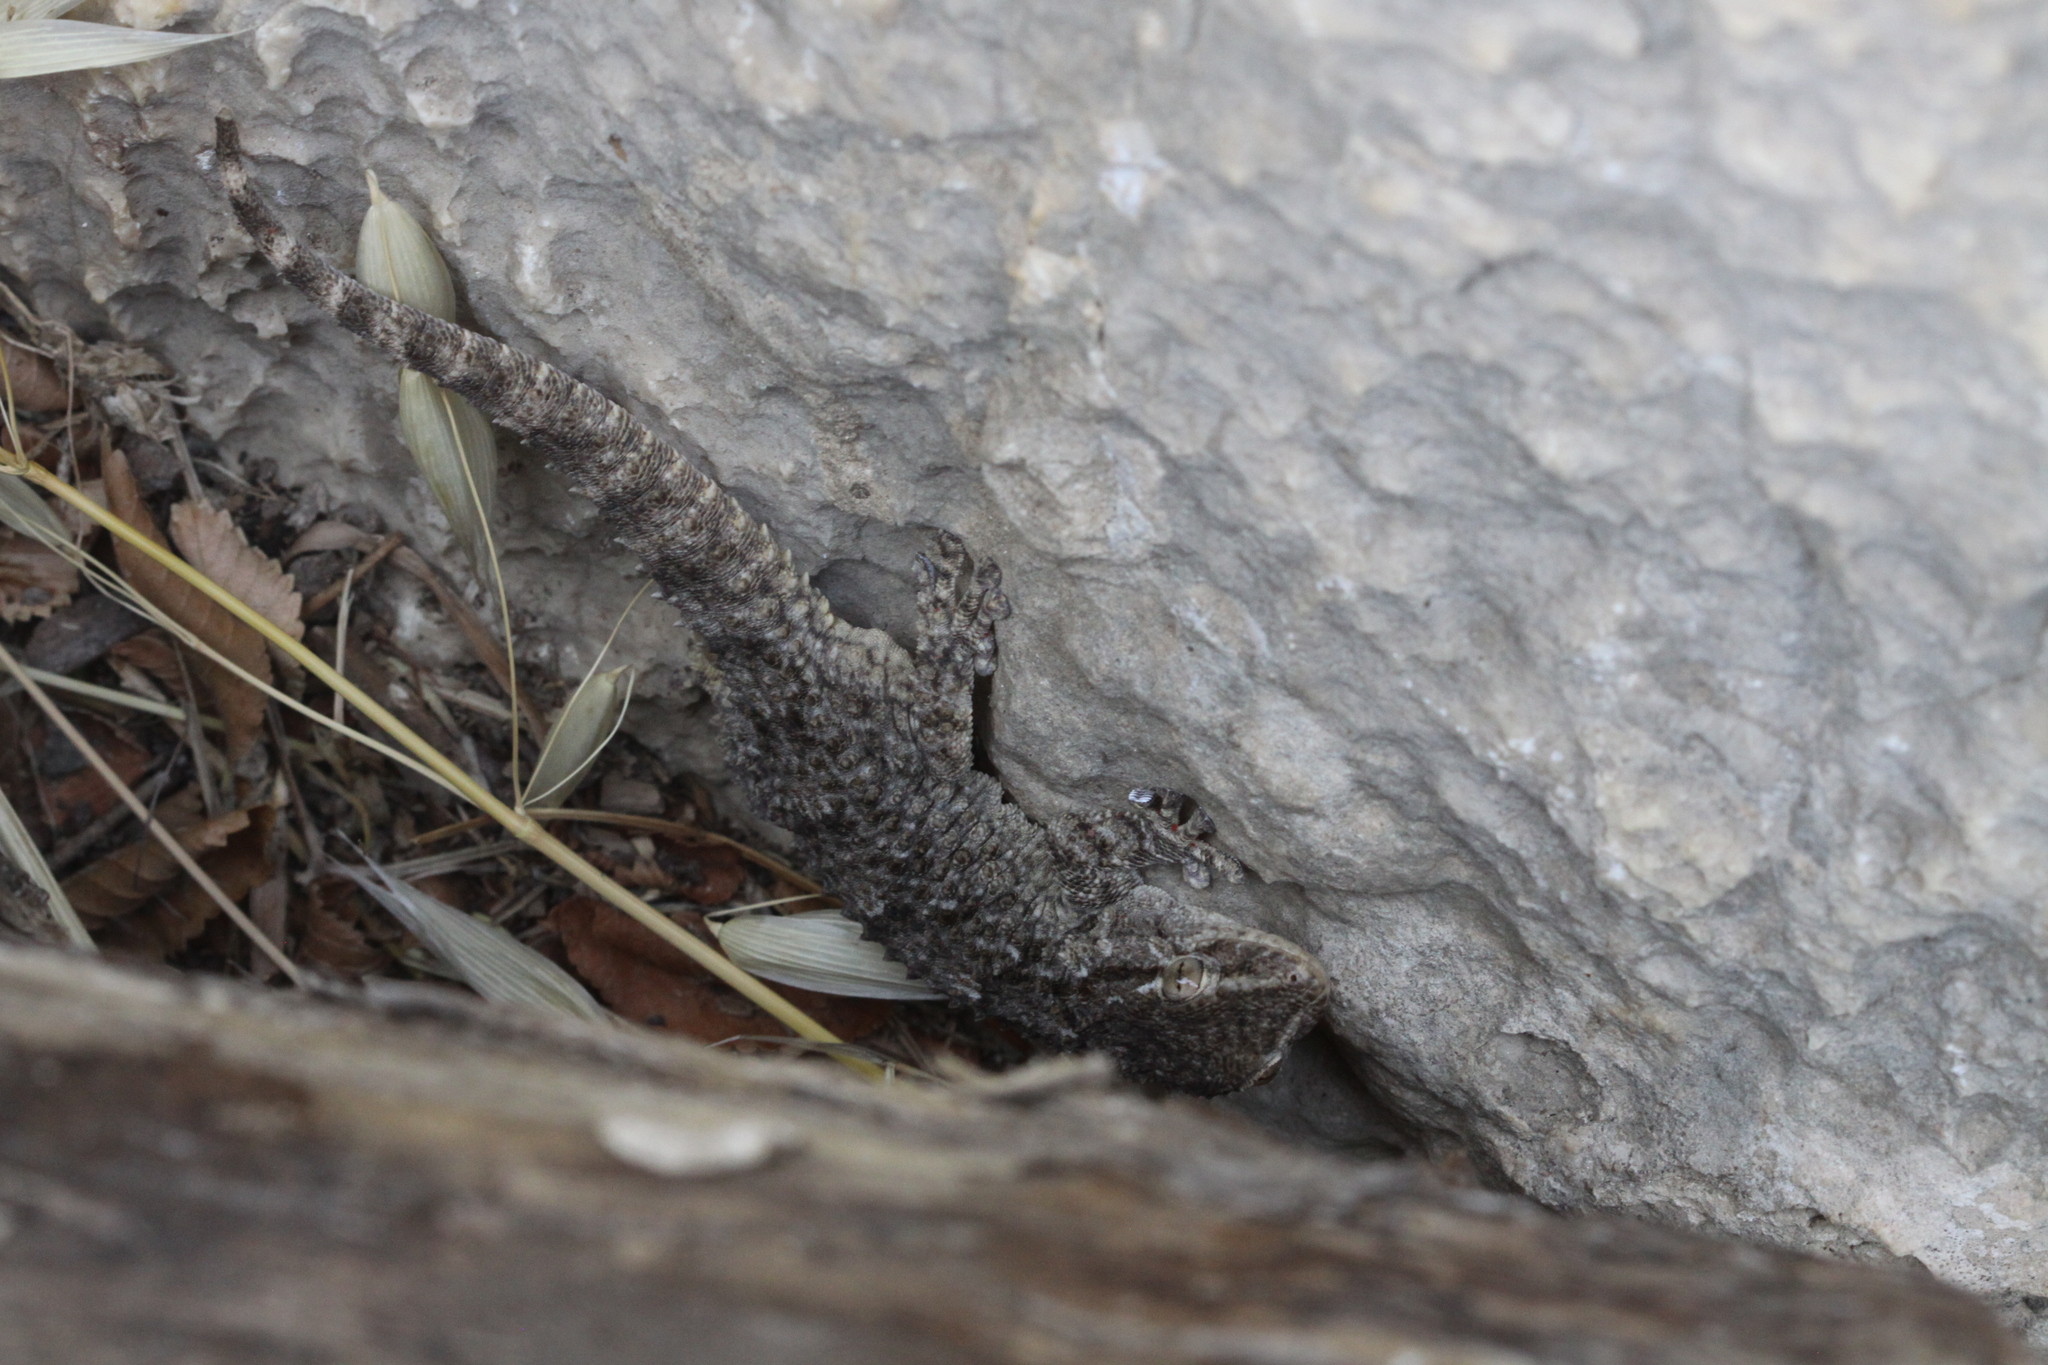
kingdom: Animalia
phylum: Chordata
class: Squamata
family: Phyllodactylidae
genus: Tarentola
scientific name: Tarentola mauritanica
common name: Moorish gecko
